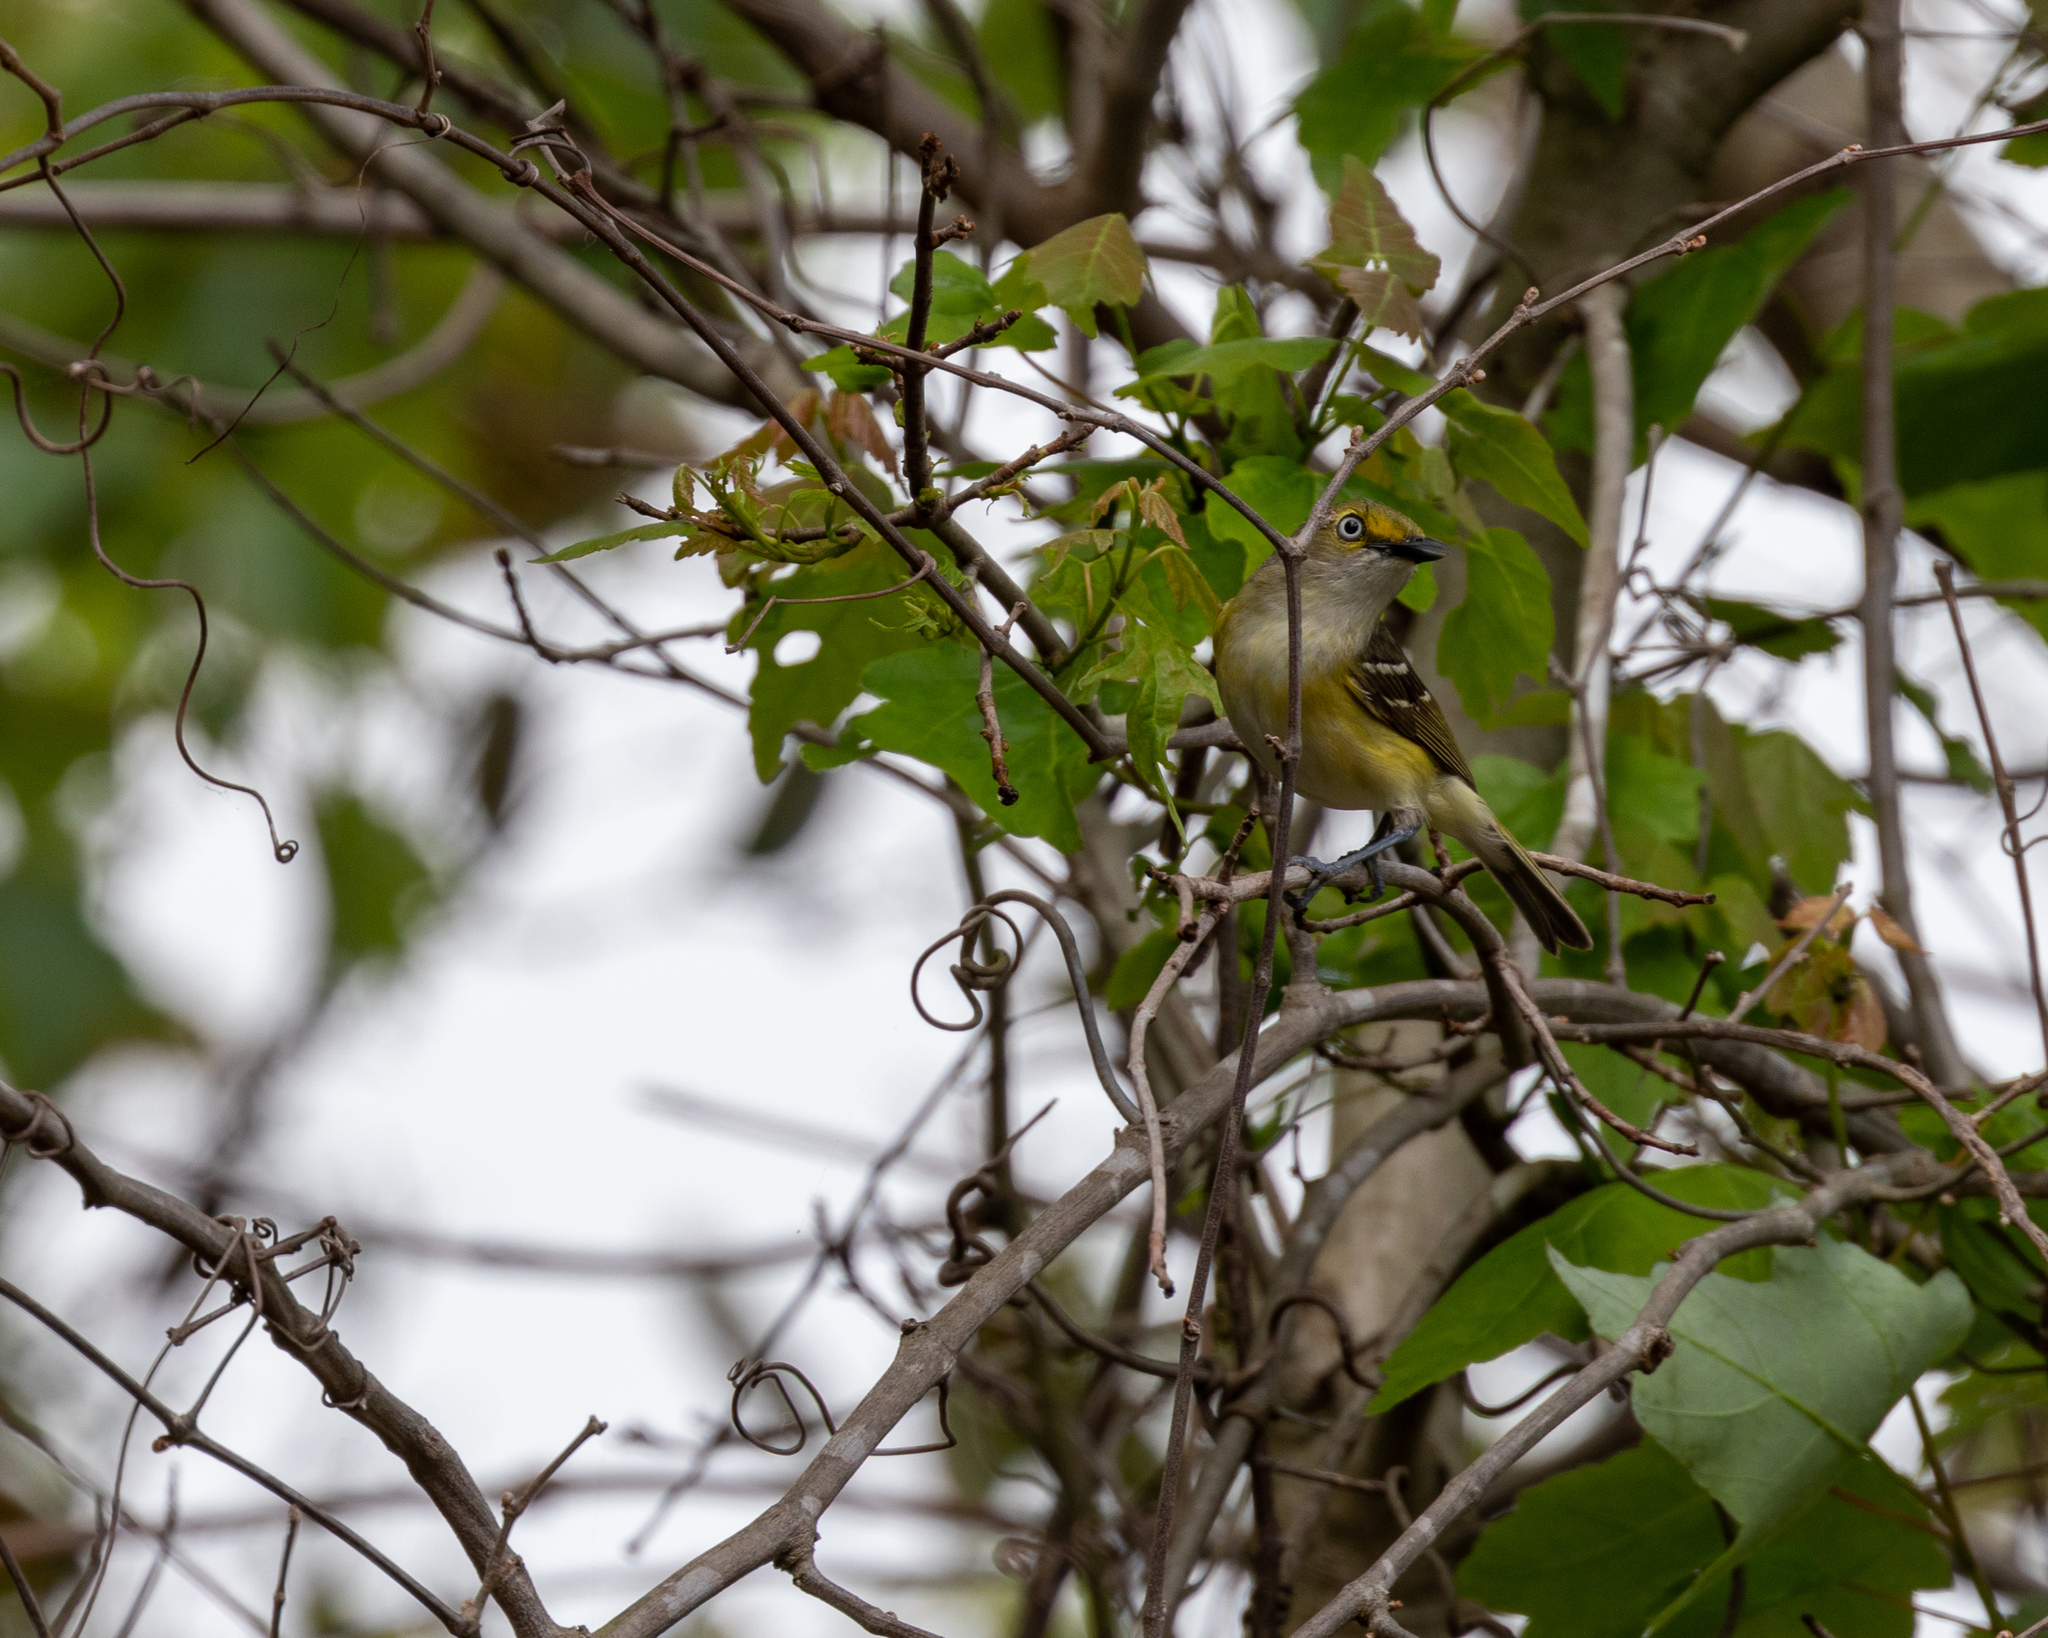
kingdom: Animalia
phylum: Chordata
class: Aves
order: Passeriformes
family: Vireonidae
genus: Vireo
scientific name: Vireo griseus
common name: White-eyed vireo
